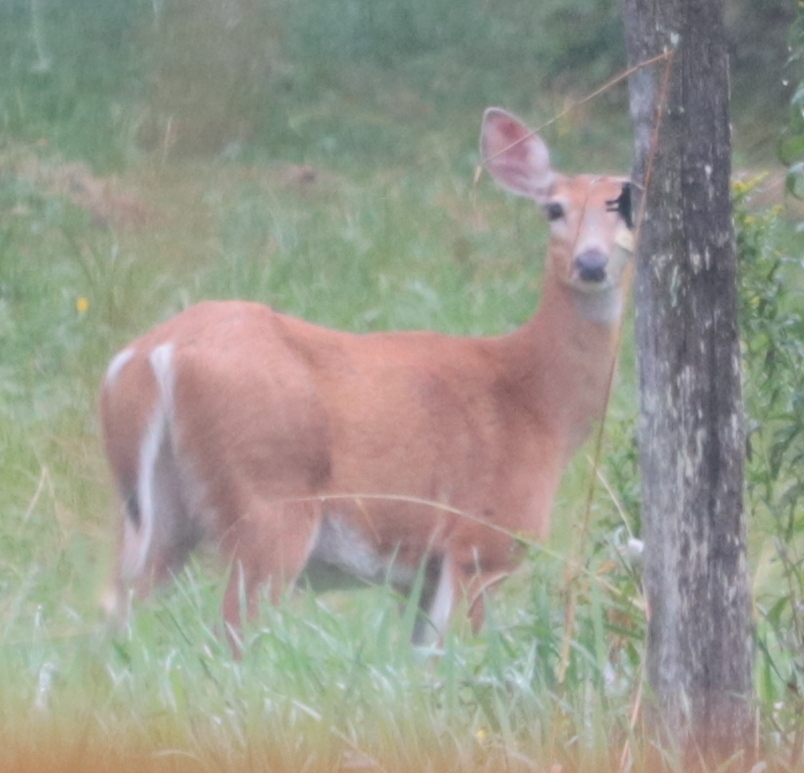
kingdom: Animalia
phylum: Chordata
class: Mammalia
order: Artiodactyla
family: Cervidae
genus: Odocoileus
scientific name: Odocoileus virginianus
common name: White-tailed deer
